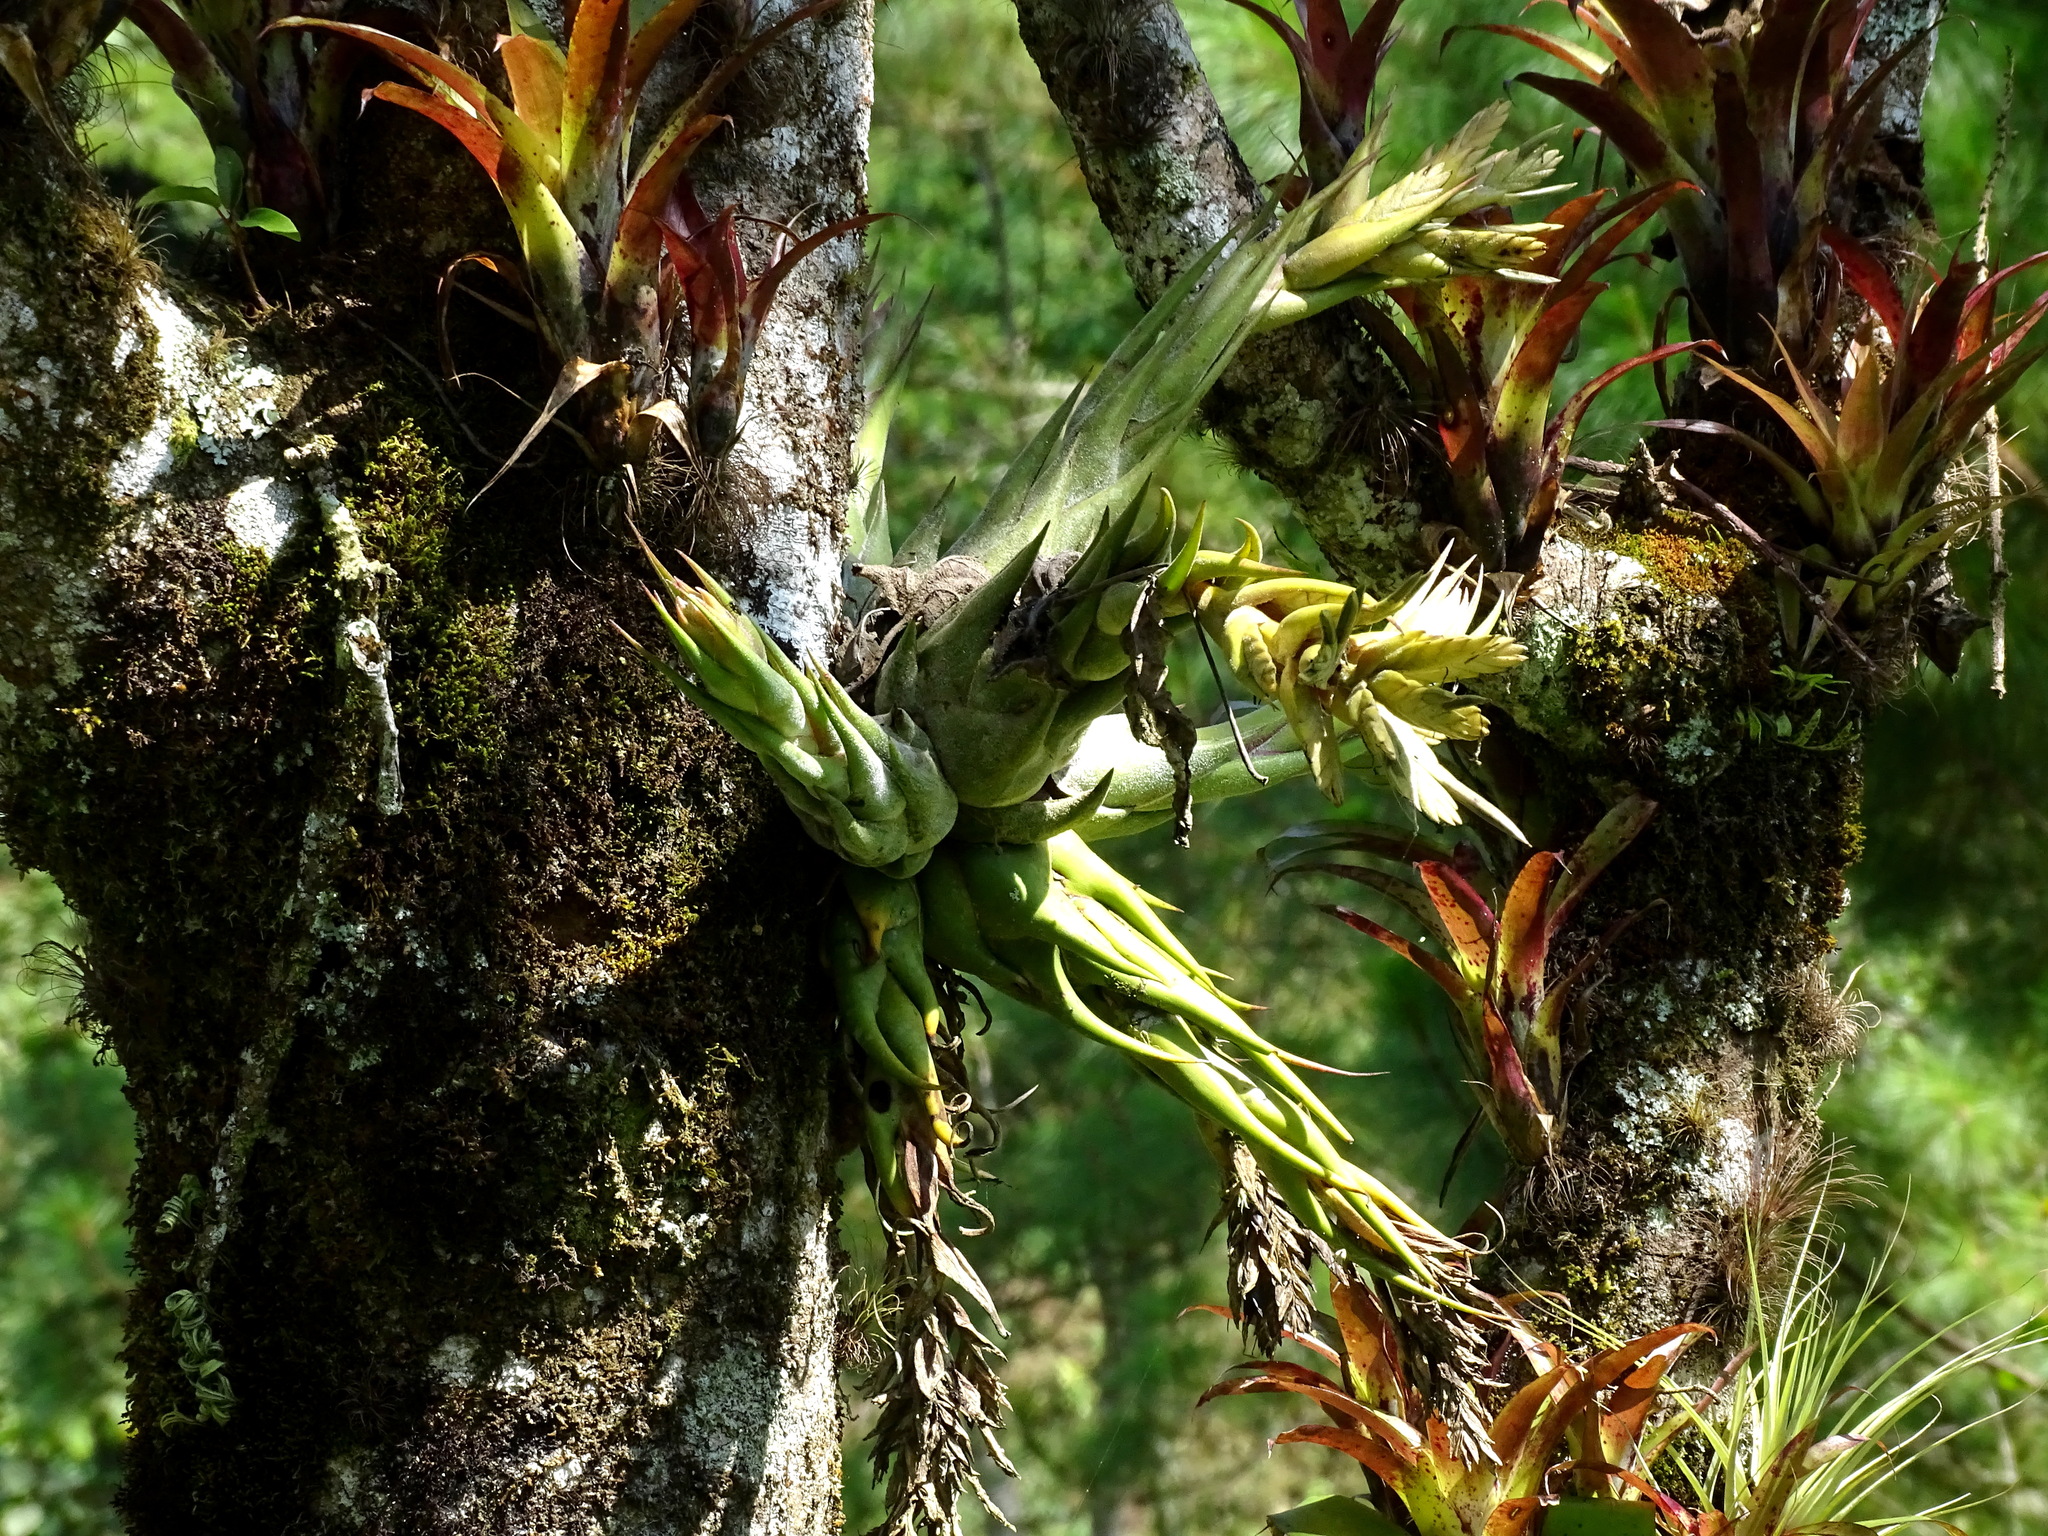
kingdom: Plantae
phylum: Tracheophyta
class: Liliopsida
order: Poales
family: Bromeliaceae
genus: Tillandsia
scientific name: Tillandsia seleriana
